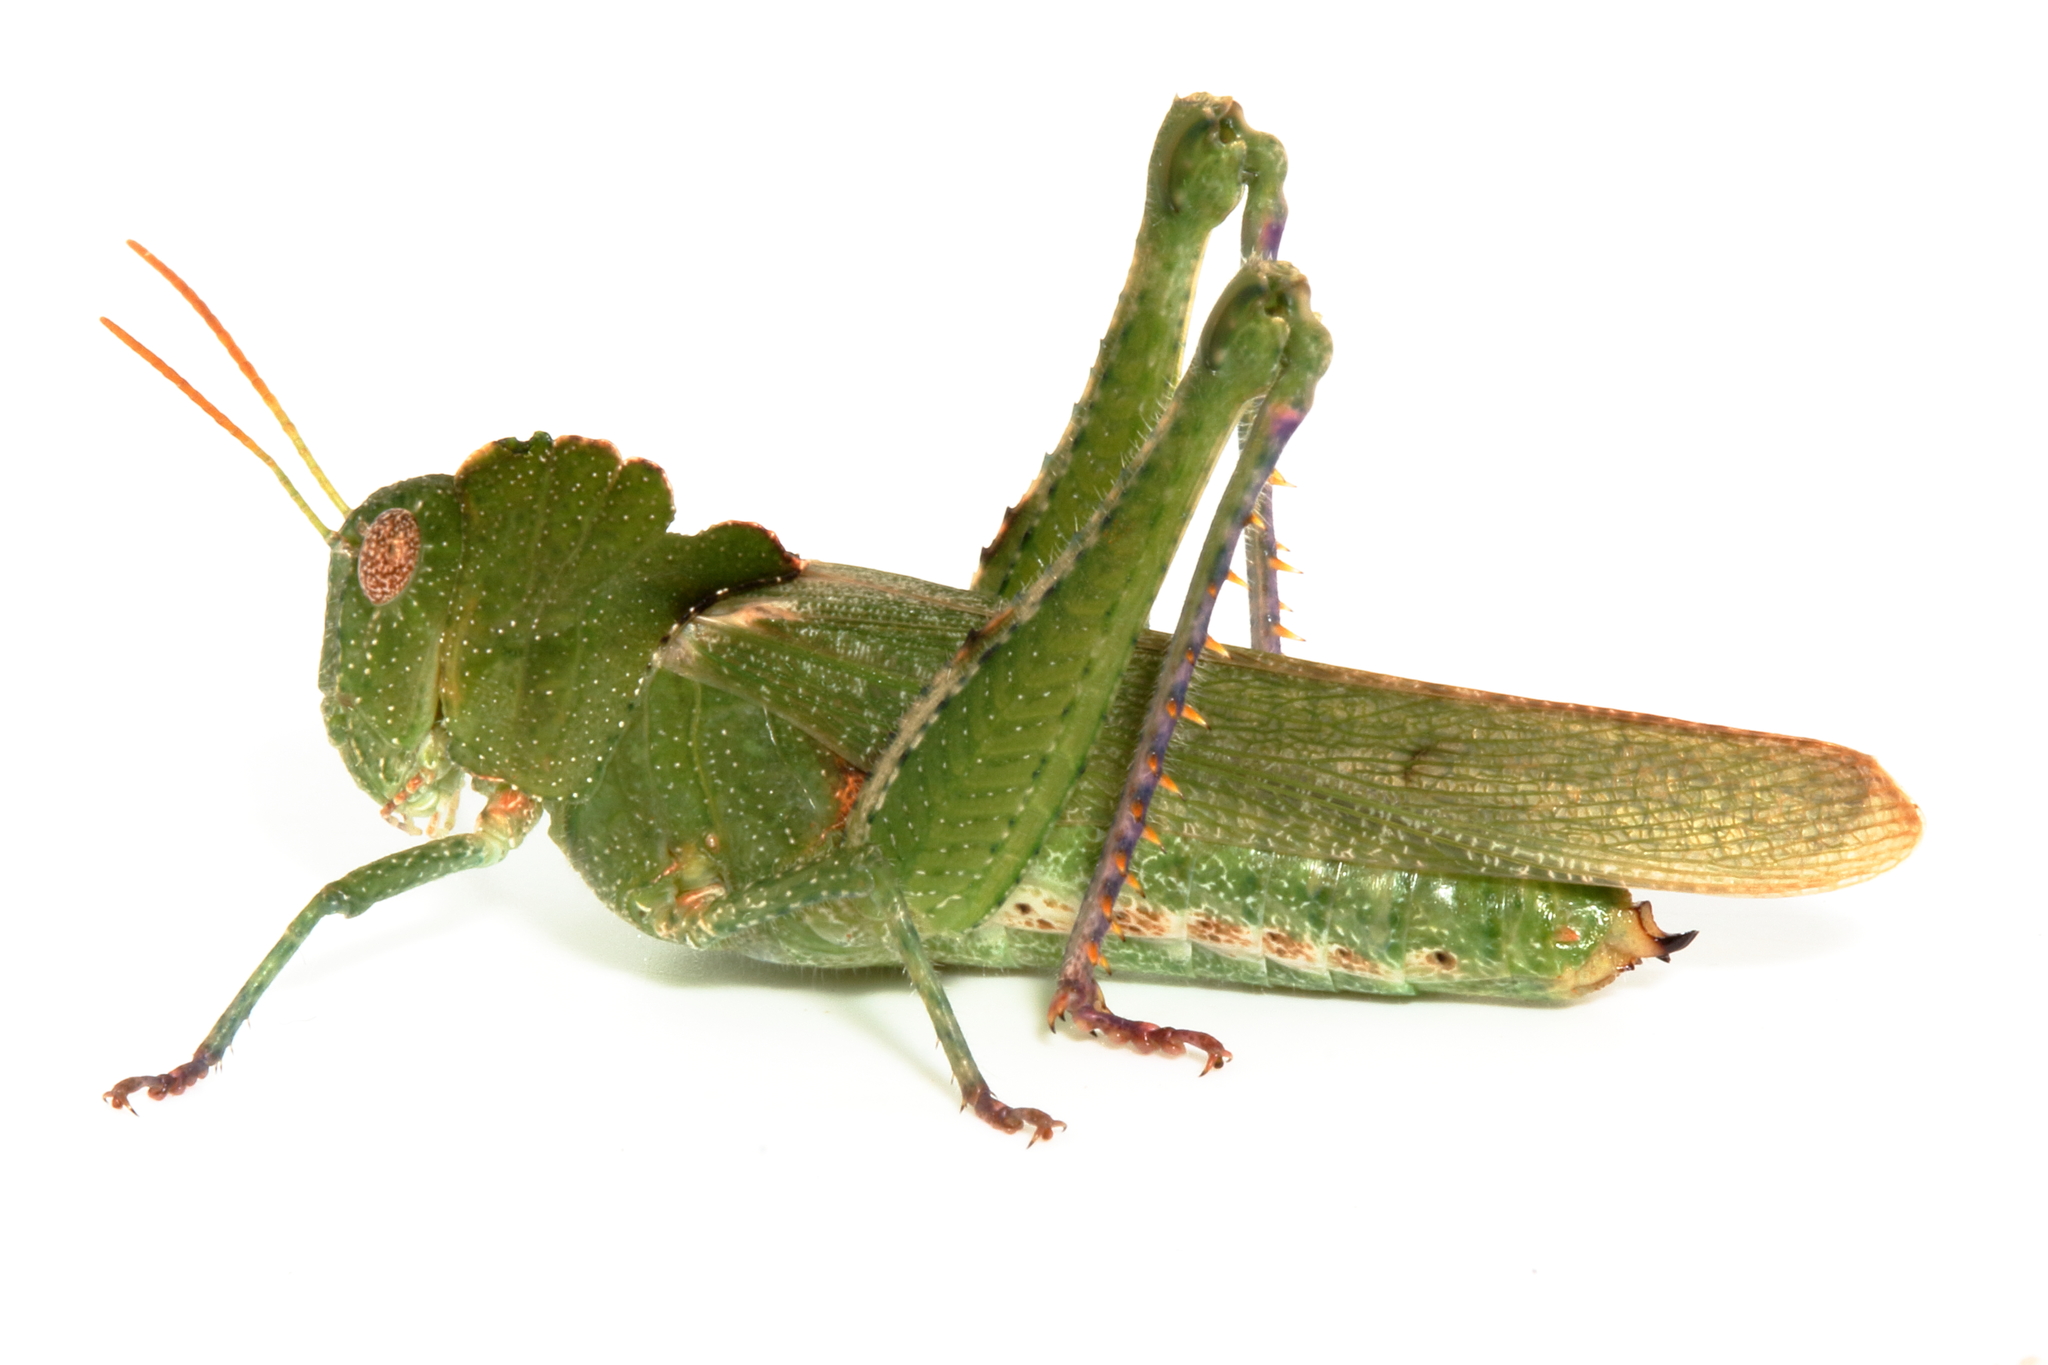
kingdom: Animalia
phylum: Arthropoda
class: Insecta
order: Orthoptera
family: Acrididae
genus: Ecphantus
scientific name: Ecphantus quadrilobus
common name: Crested tooth grinder
